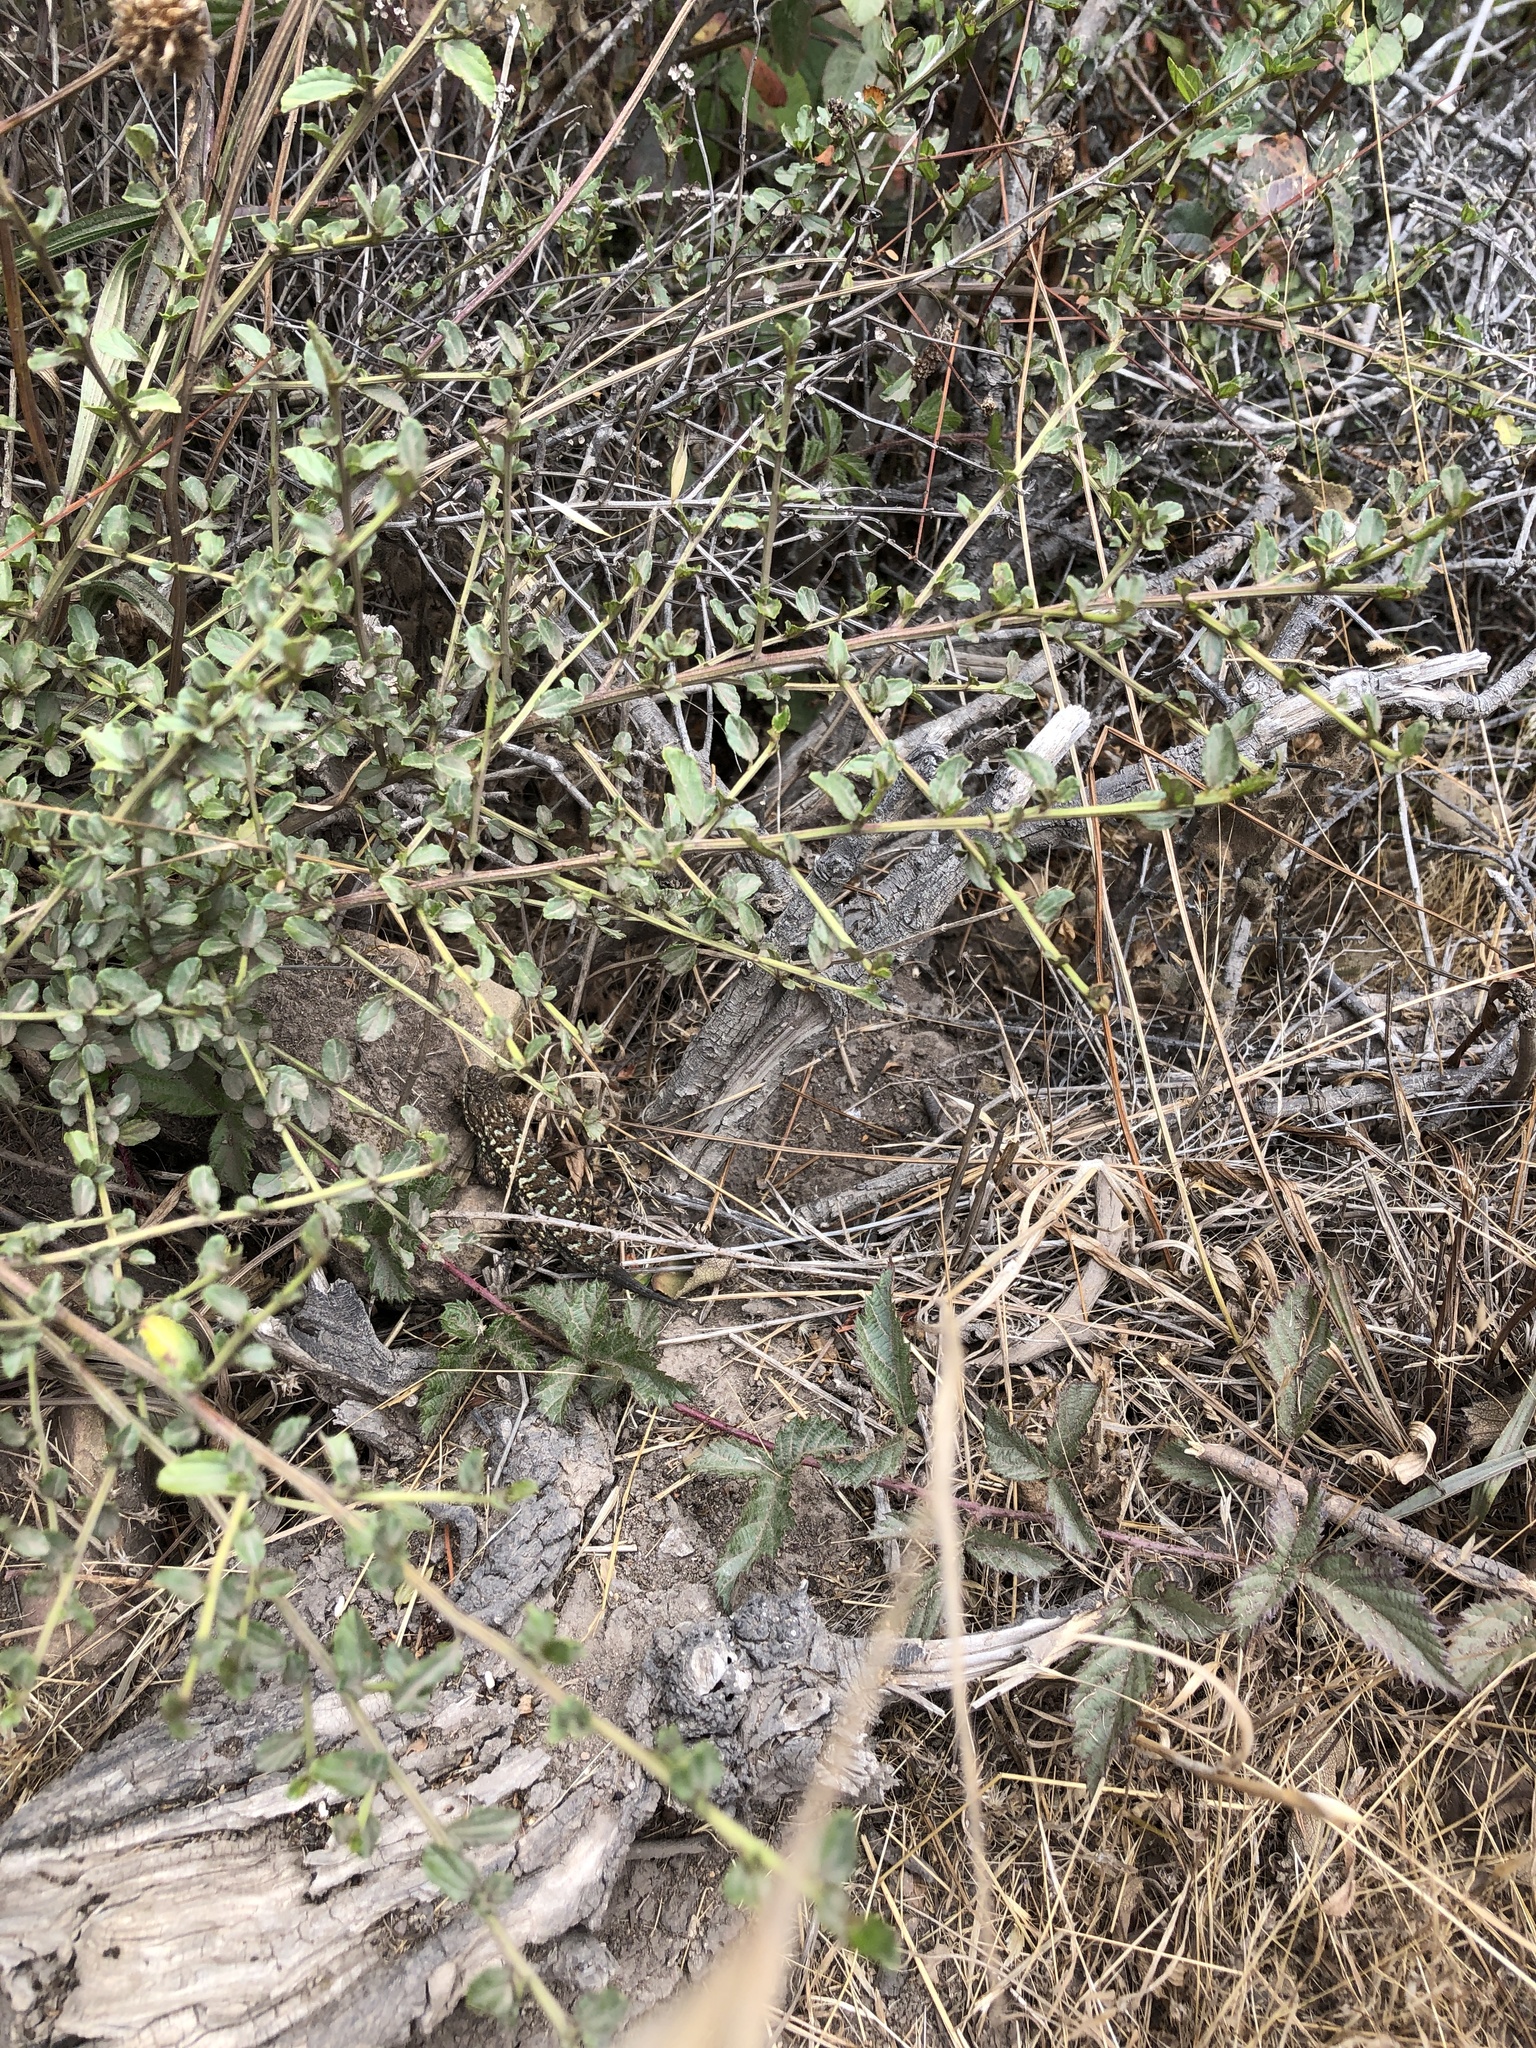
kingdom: Animalia
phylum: Chordata
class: Squamata
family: Phrynosomatidae
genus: Sceloporus
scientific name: Sceloporus occidentalis
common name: Western fence lizard
